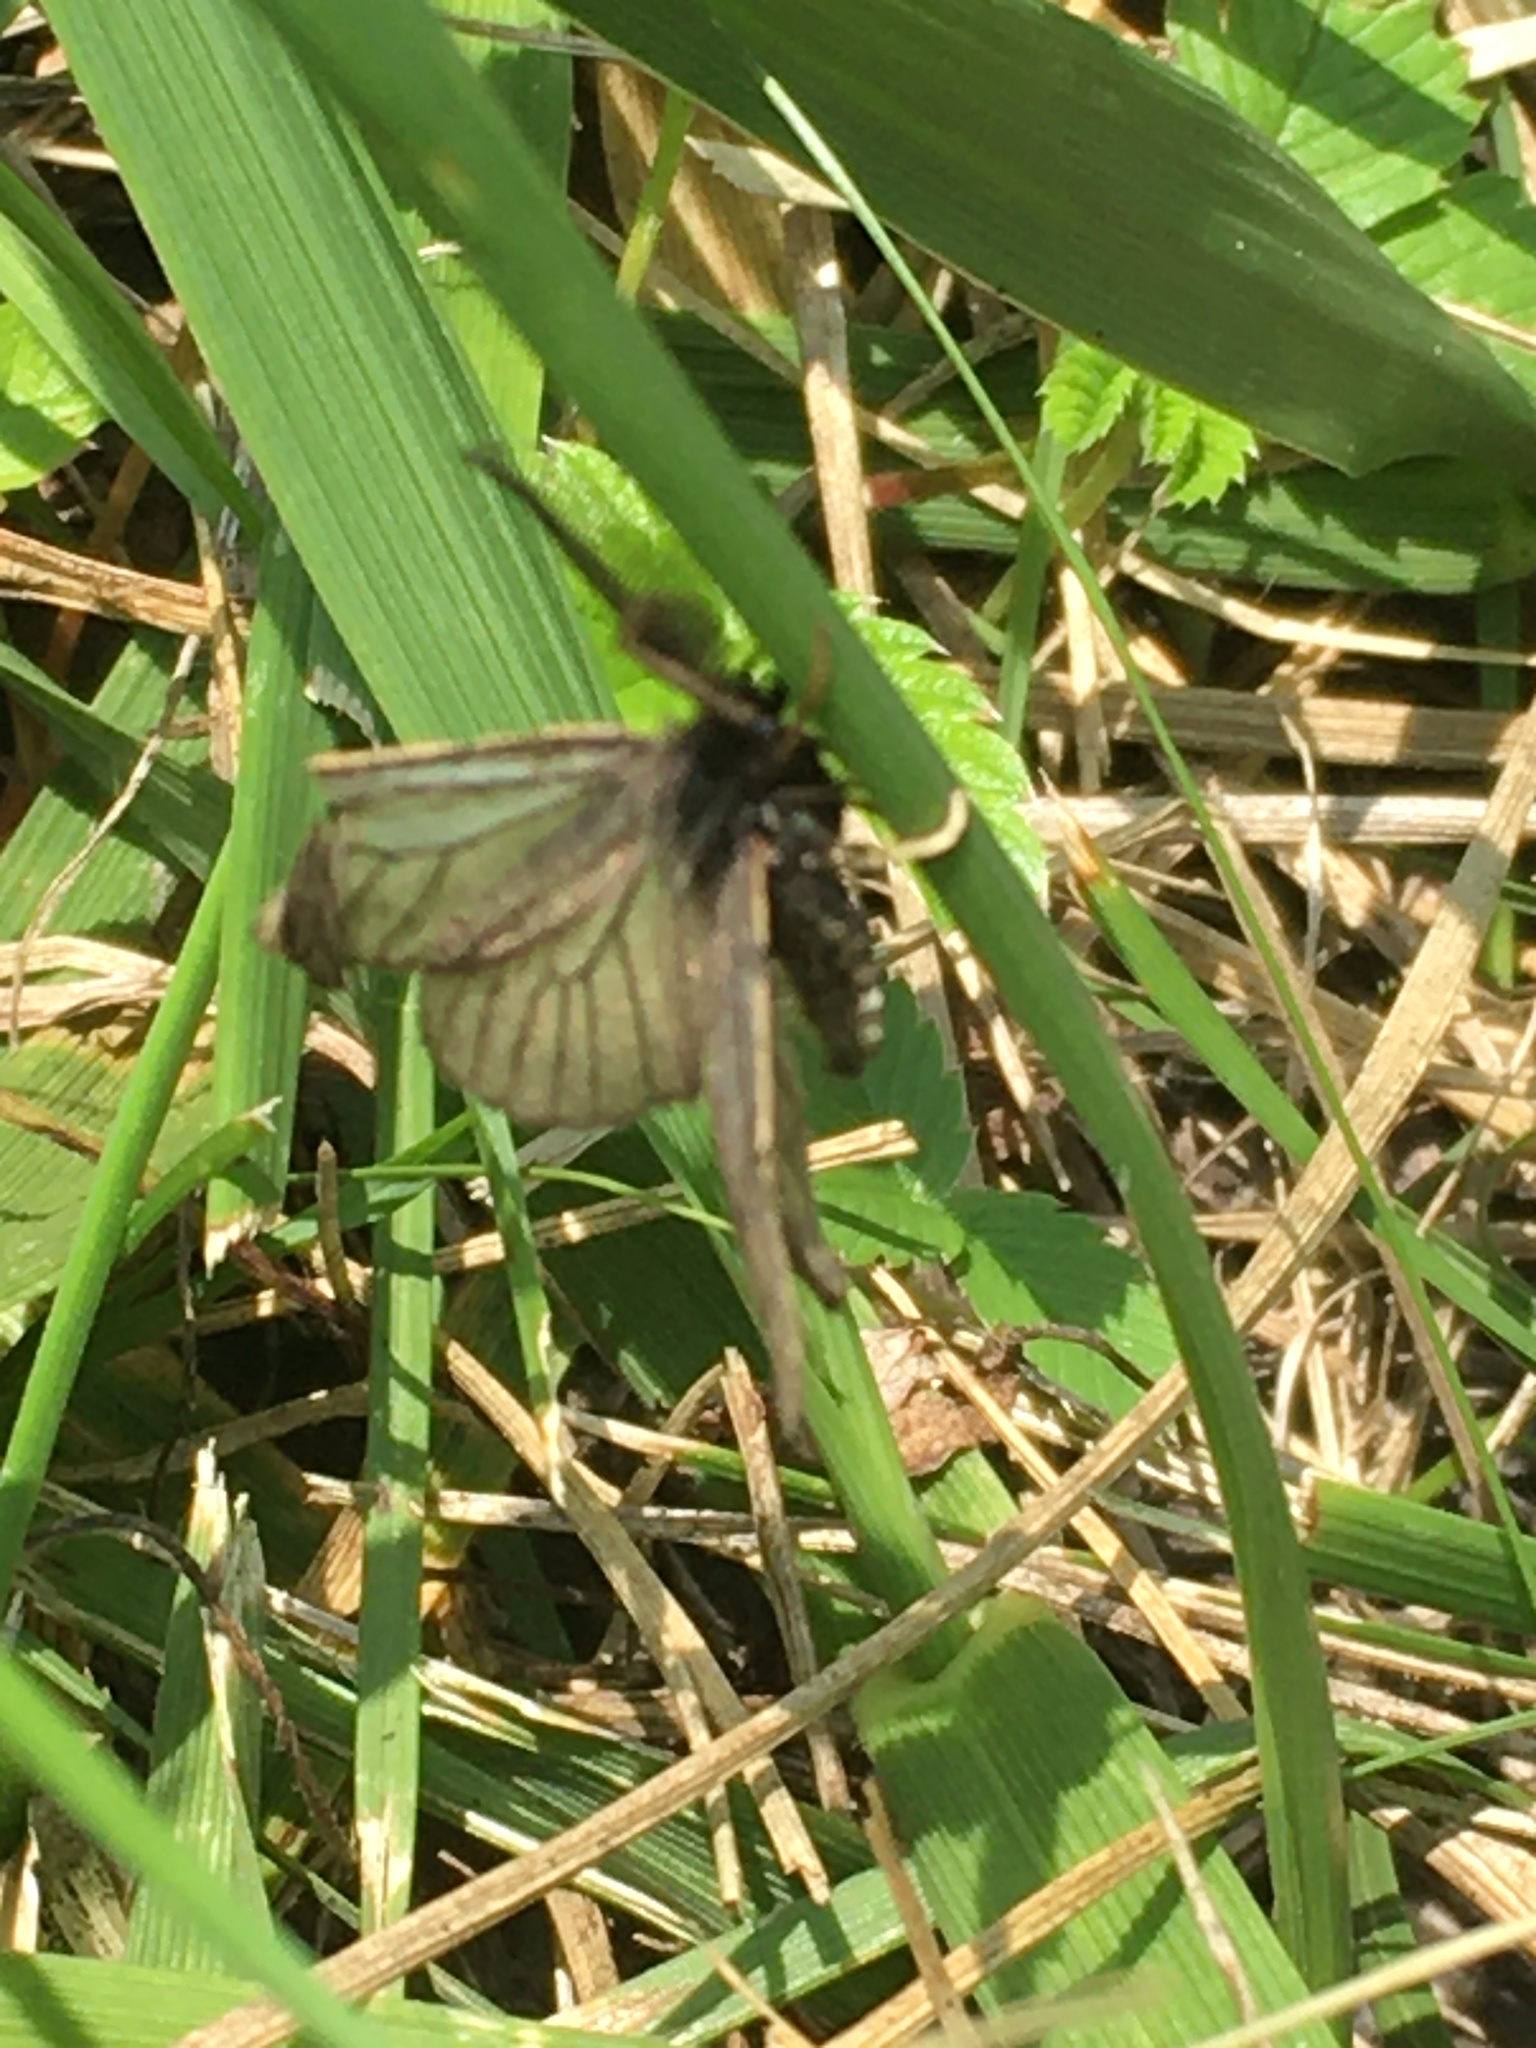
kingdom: Animalia
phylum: Arthropoda
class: Insecta
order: Lepidoptera
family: Erebidae
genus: Penthophera
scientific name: Penthophera morio
